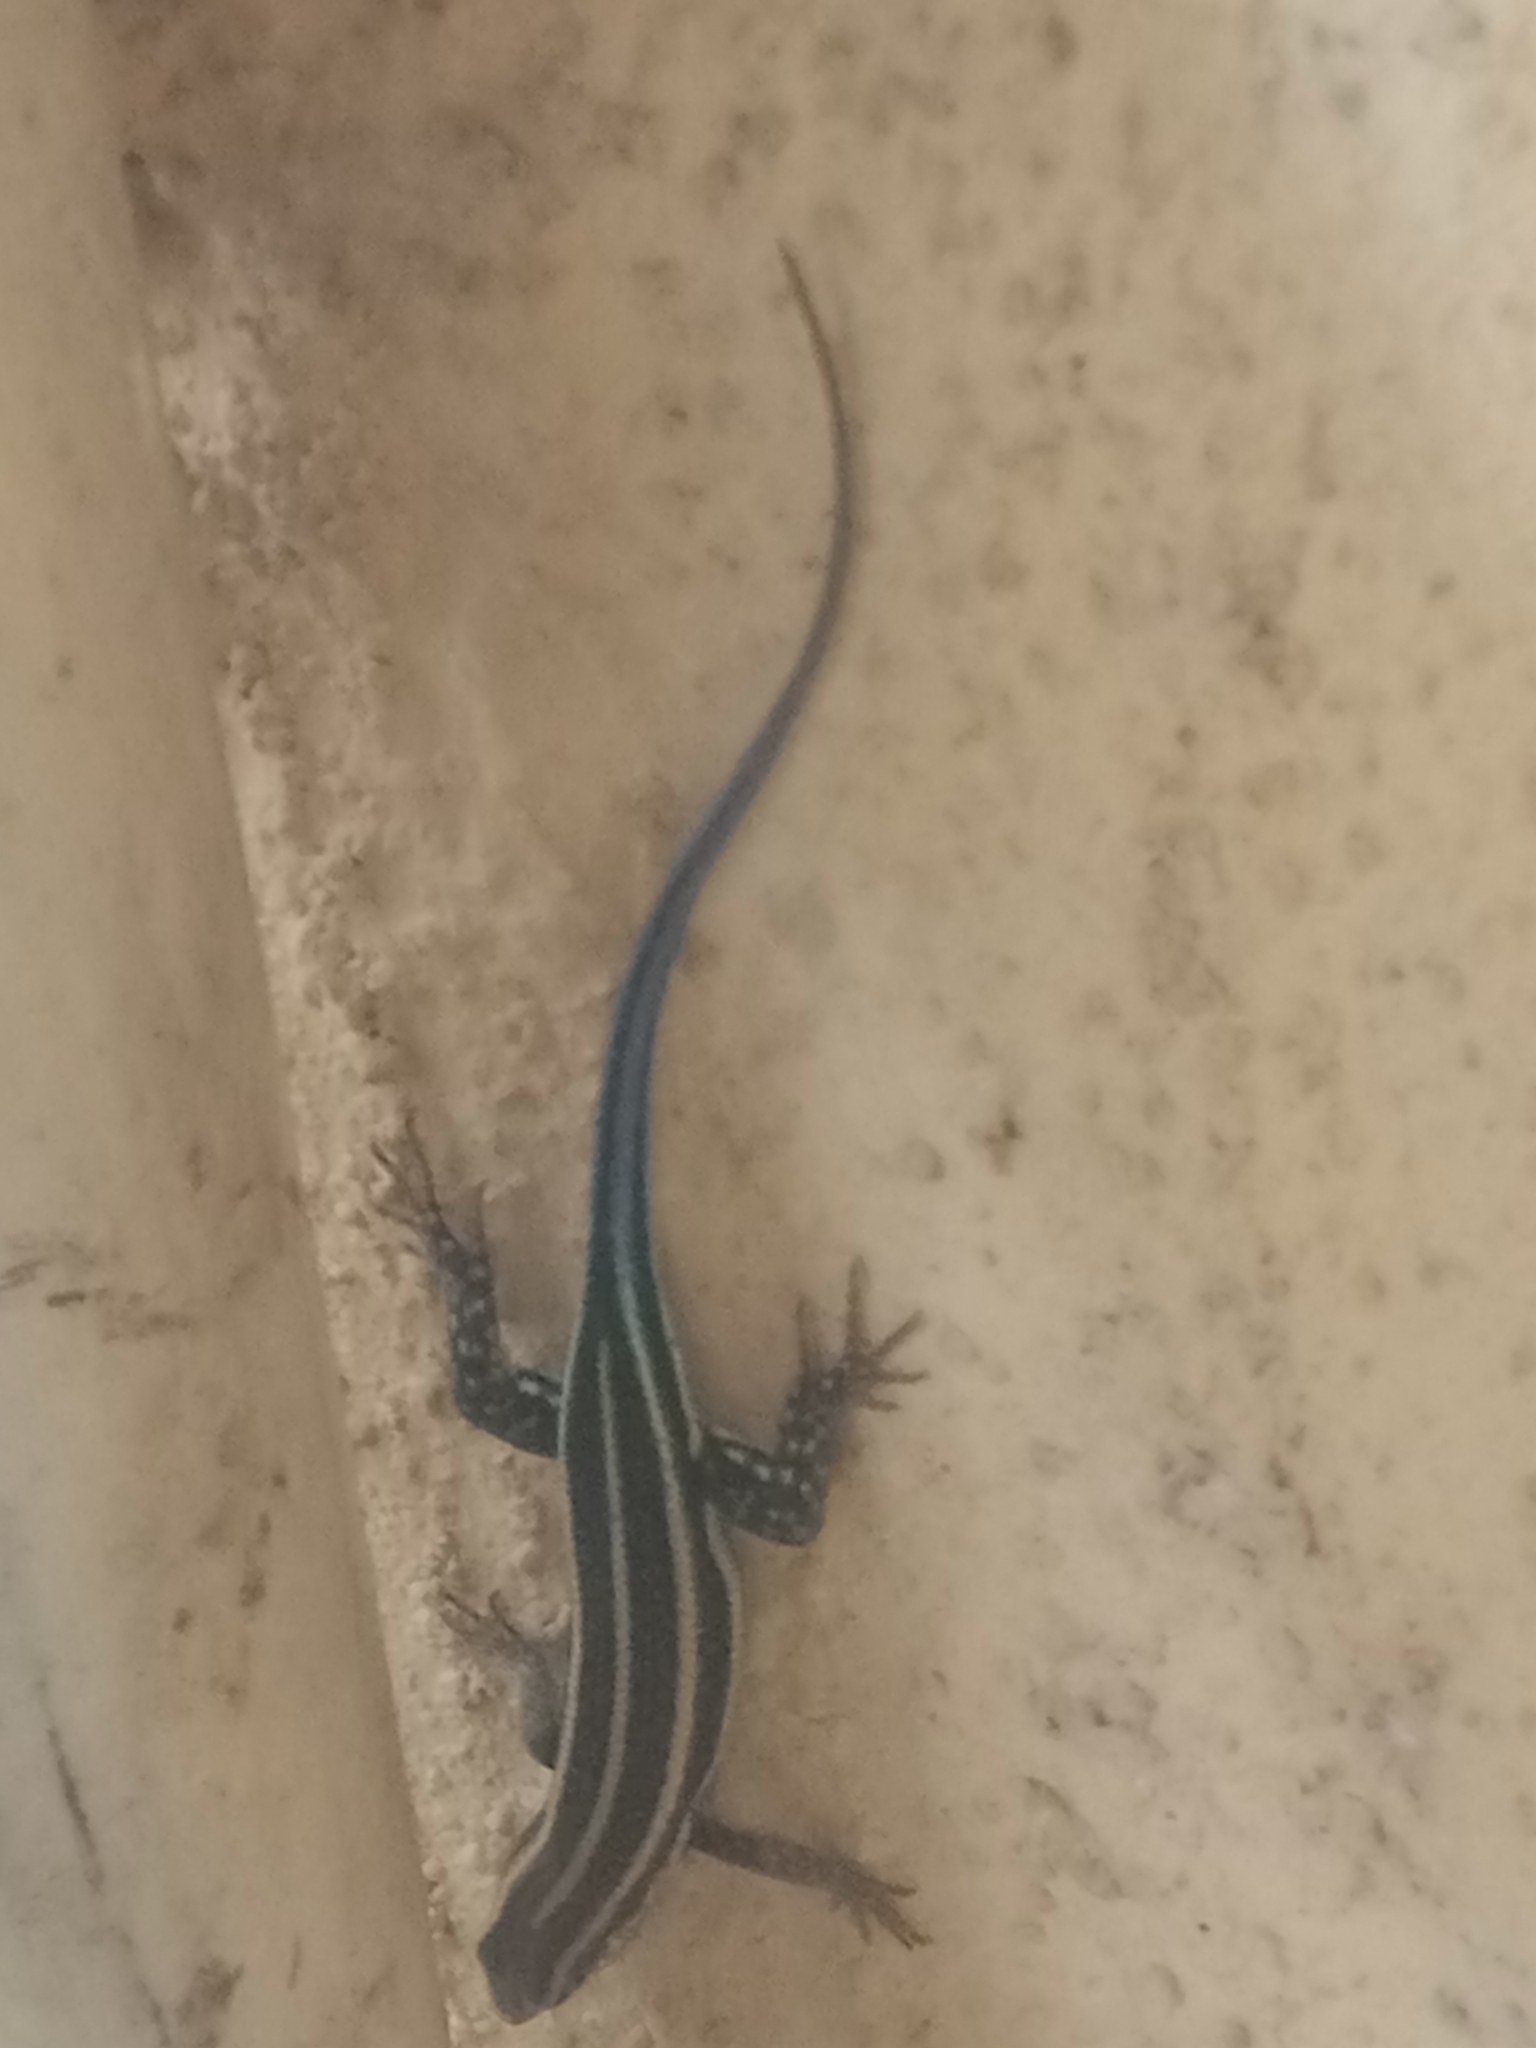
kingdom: Animalia
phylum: Chordata
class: Squamata
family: Scincidae
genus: Trachylepis
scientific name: Trachylepis quinquetaeniata
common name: African five-lined skink
